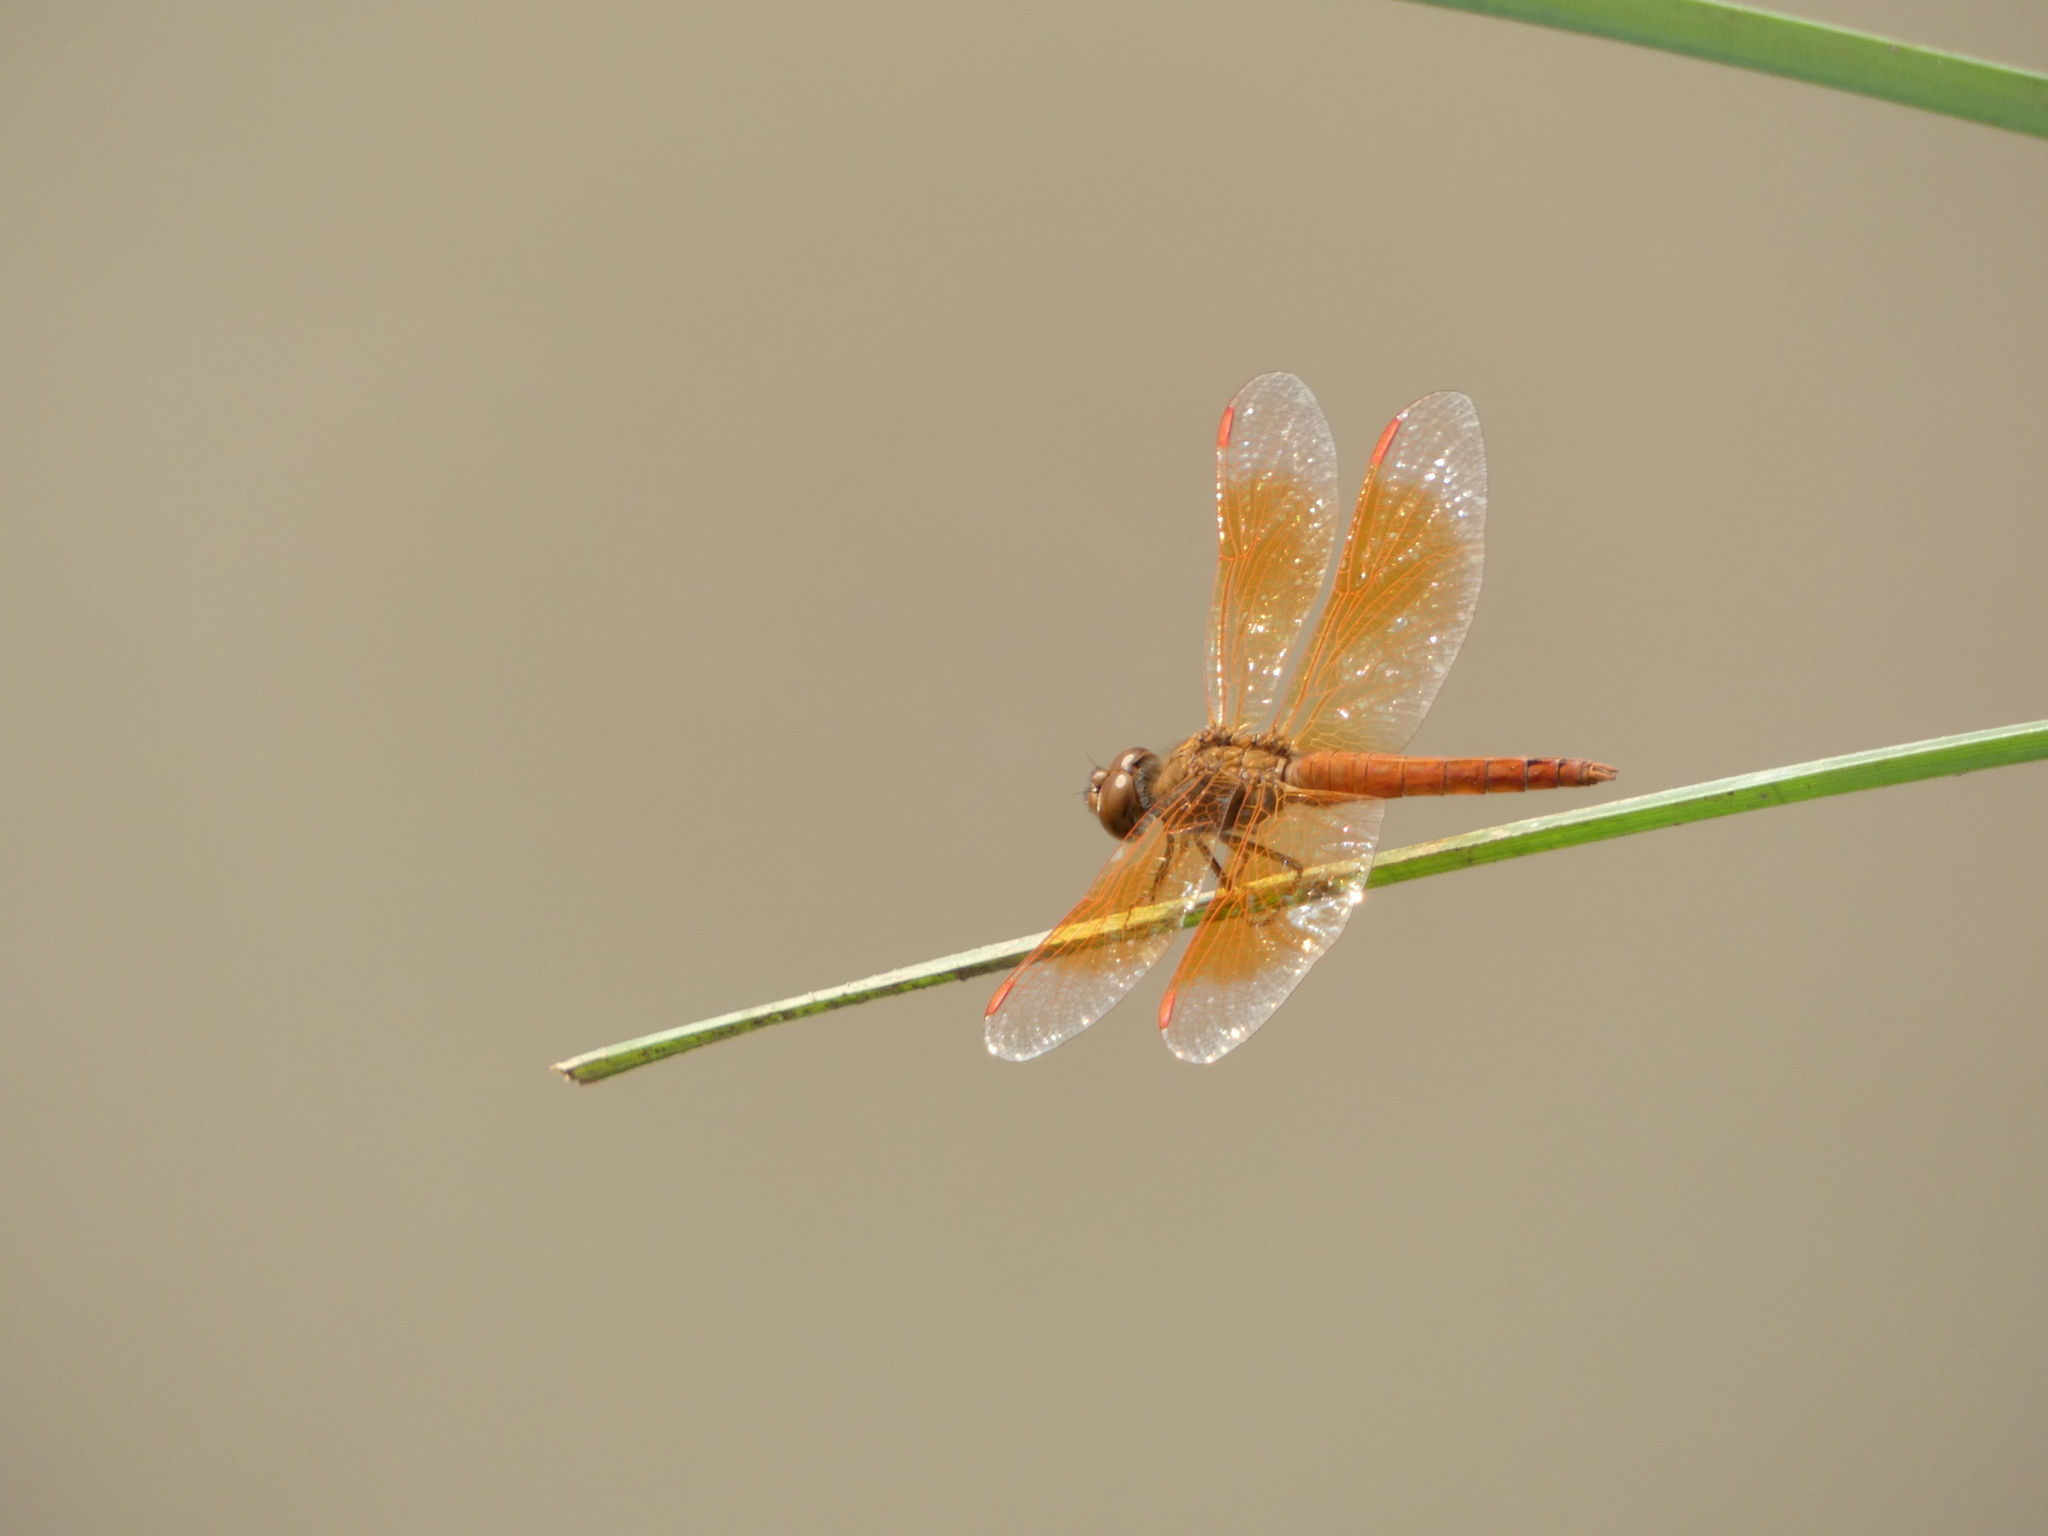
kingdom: Animalia
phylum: Arthropoda
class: Insecta
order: Odonata
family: Libellulidae
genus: Brachythemis
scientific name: Brachythemis contaminata
